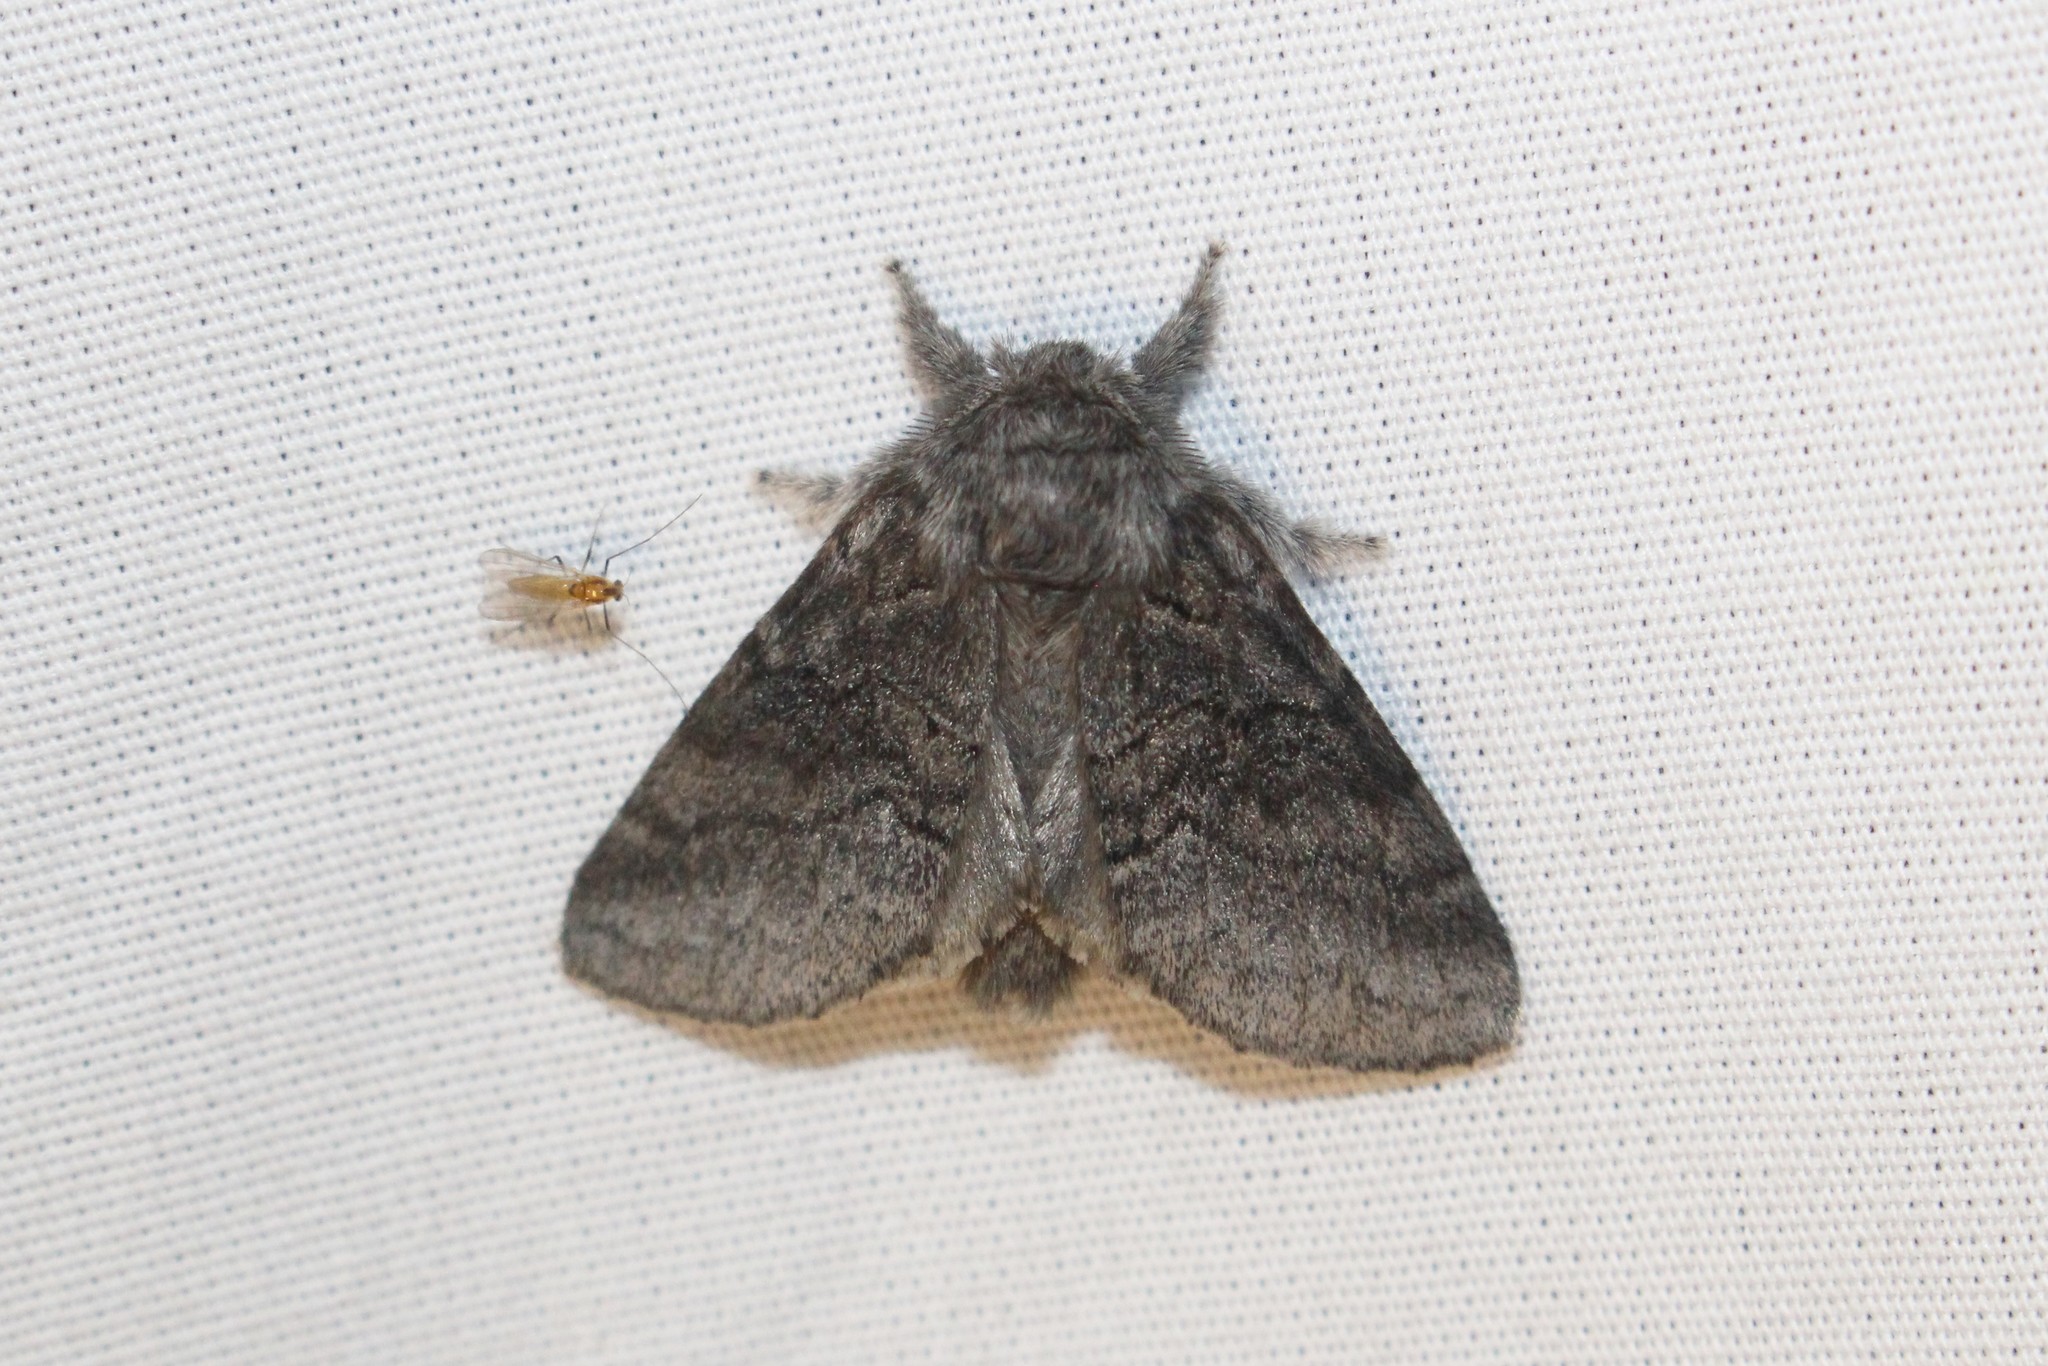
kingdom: Animalia
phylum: Arthropoda
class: Insecta
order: Lepidoptera
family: Notodontidae
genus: Gluphisia
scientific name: Gluphisia septentrionis
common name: Common gluphisia
